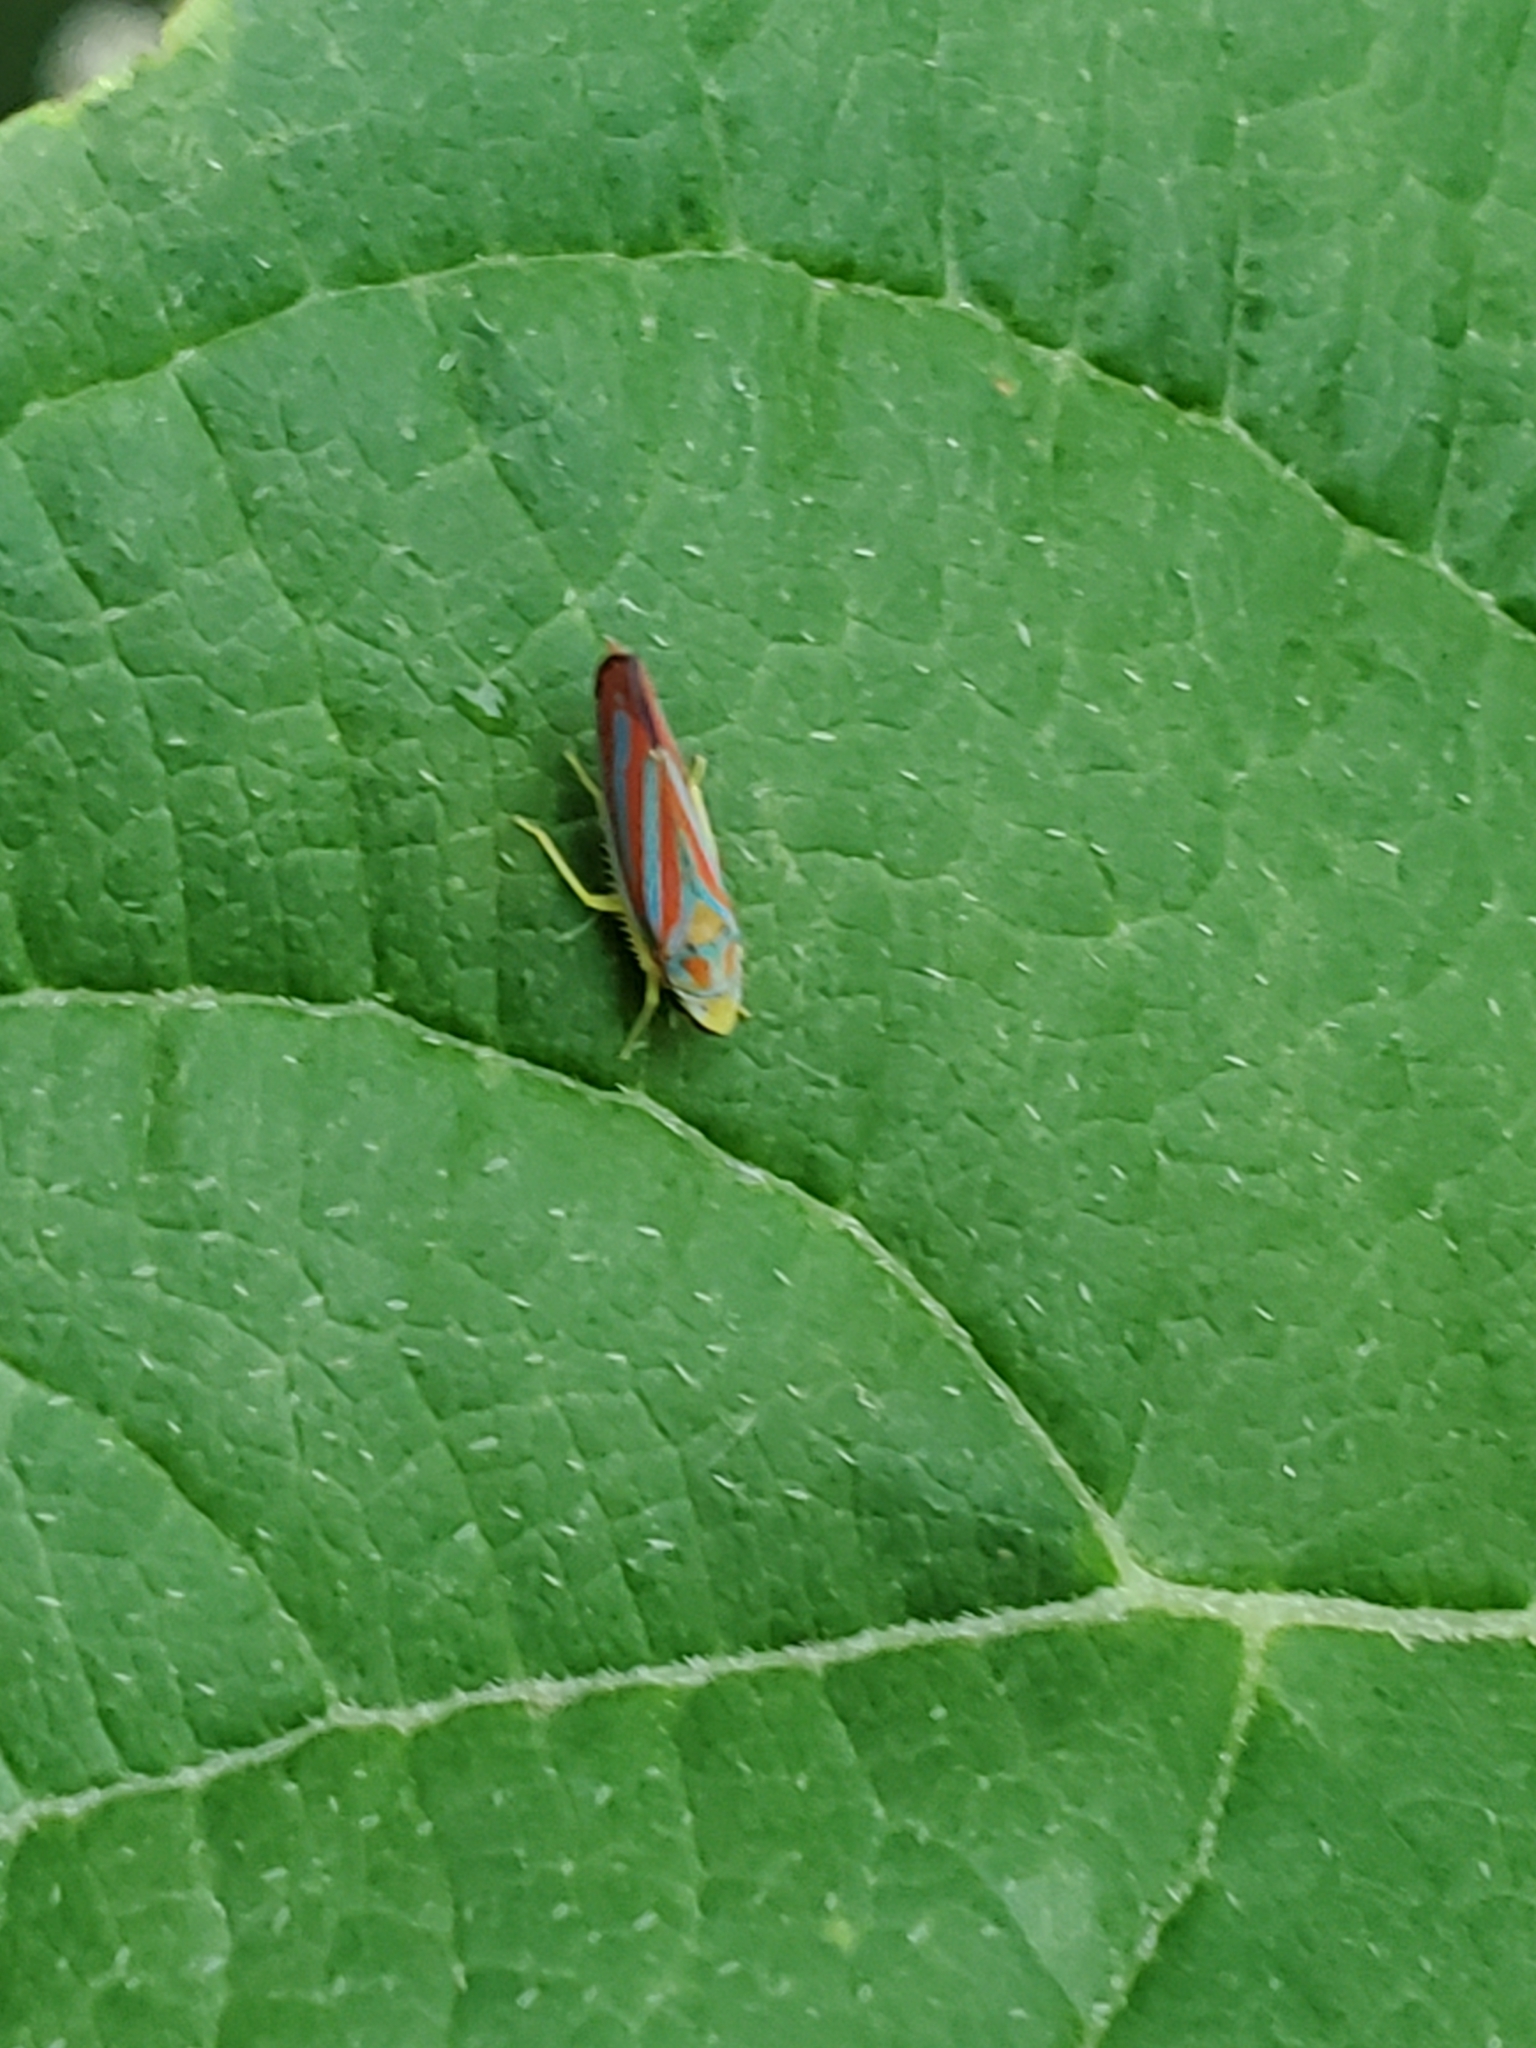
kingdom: Animalia
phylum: Arthropoda
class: Insecta
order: Hemiptera
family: Cicadellidae
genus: Graphocephala
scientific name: Graphocephala coccinea
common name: Candy-striped leafhopper
